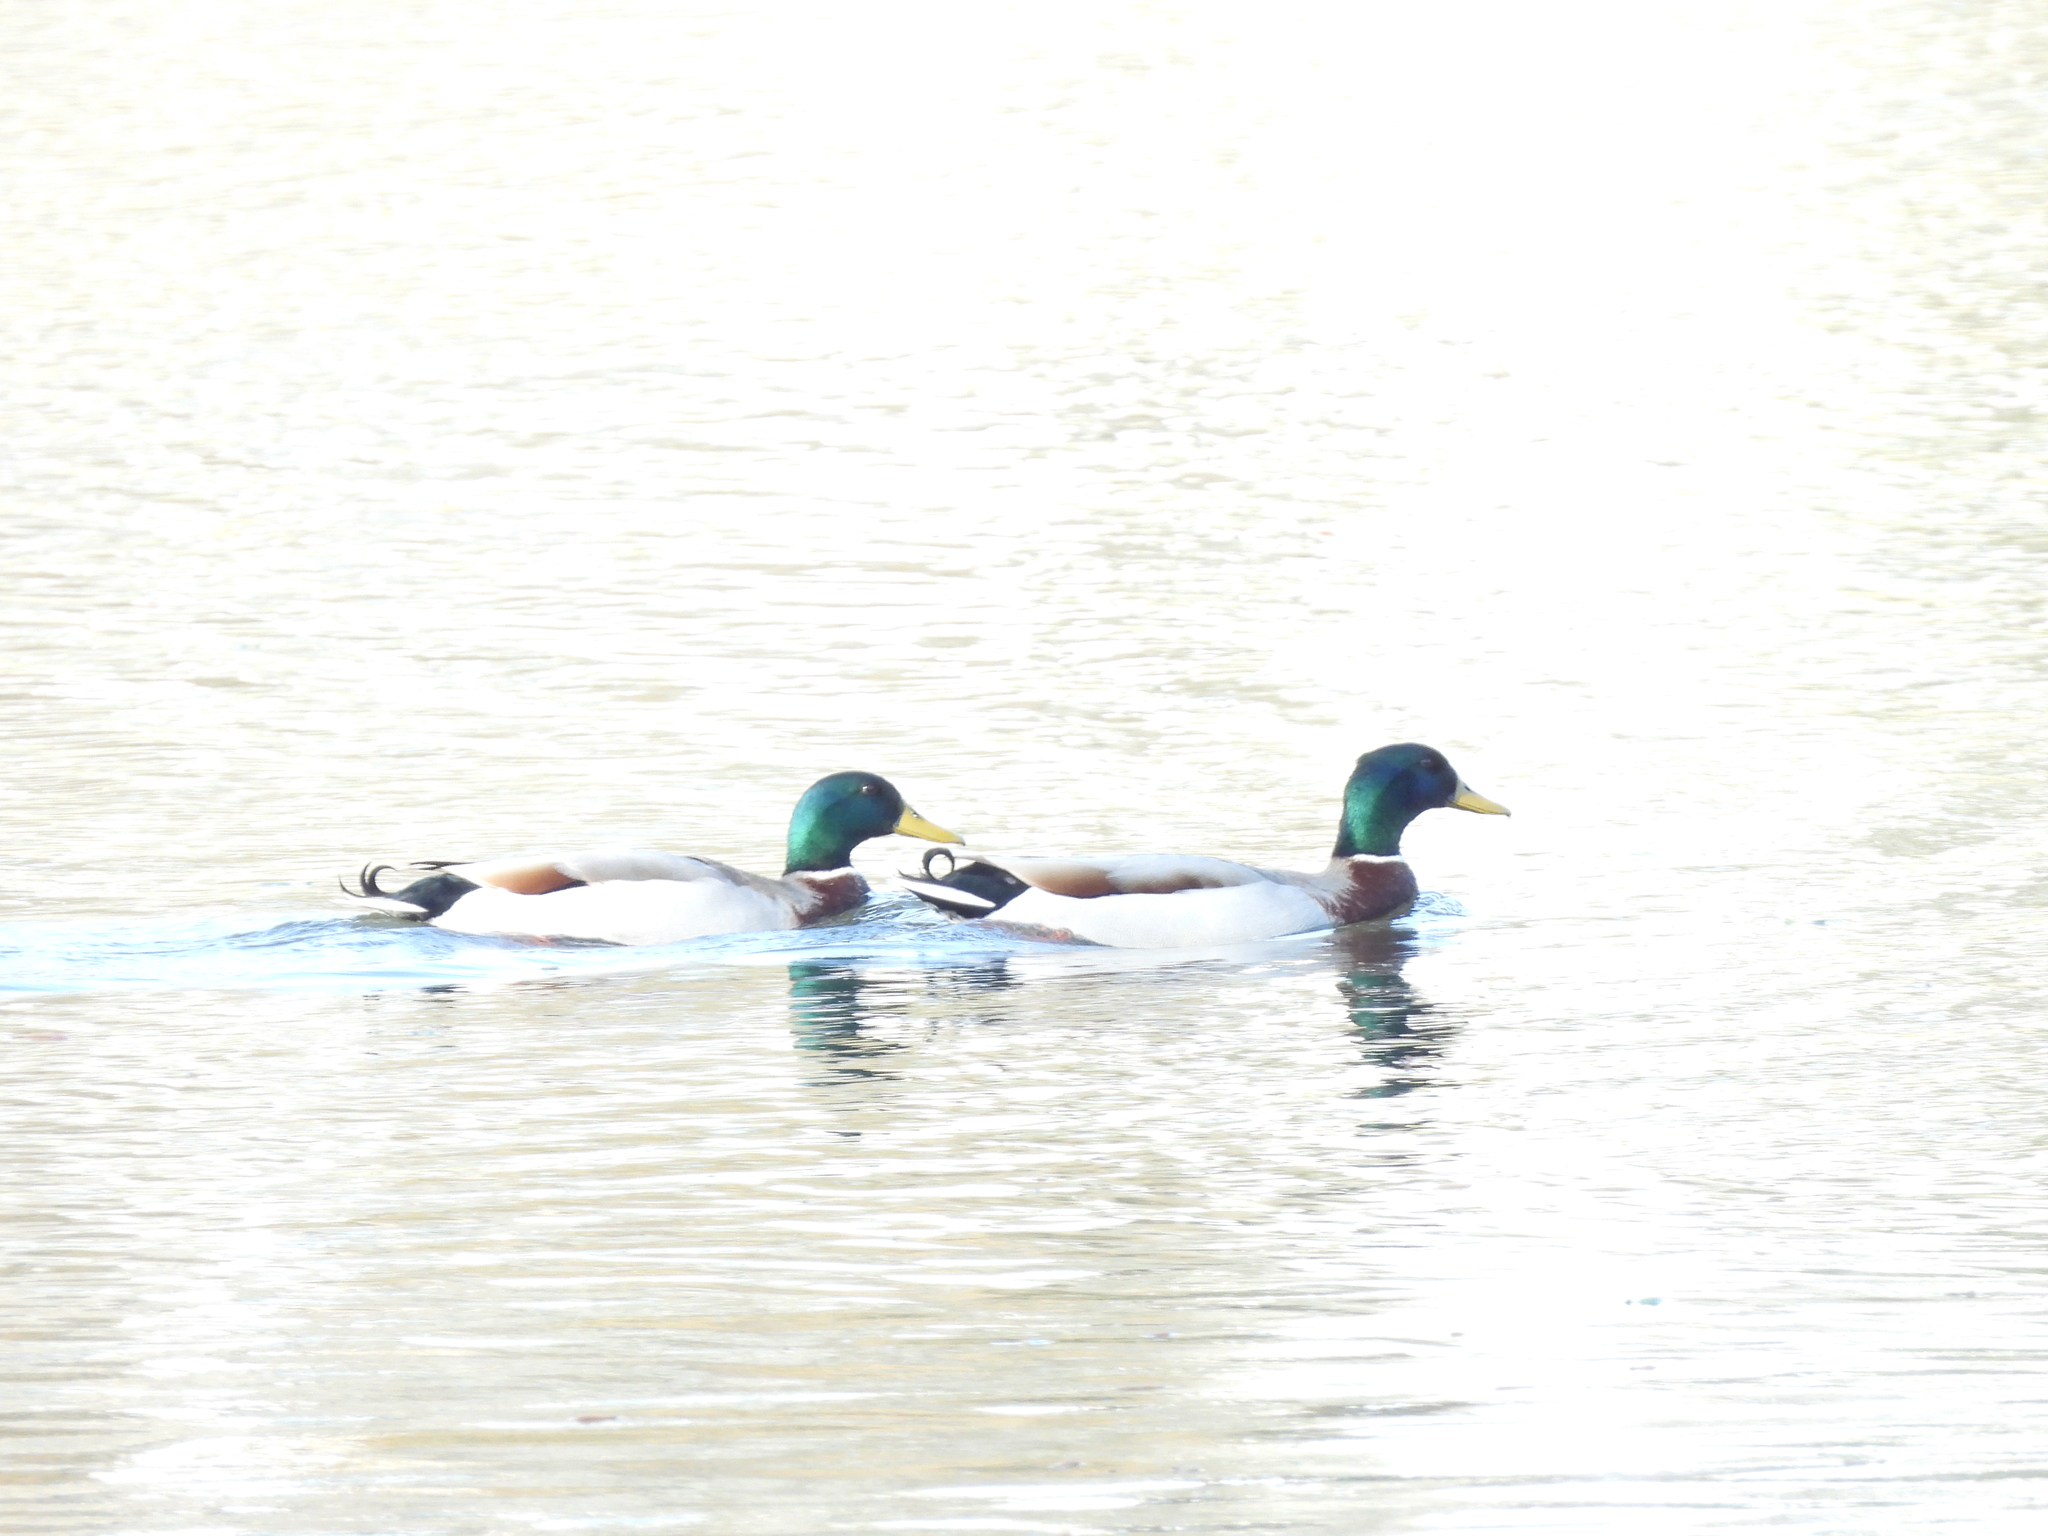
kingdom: Animalia
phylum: Chordata
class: Aves
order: Anseriformes
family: Anatidae
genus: Anas
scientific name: Anas platyrhynchos
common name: Mallard
